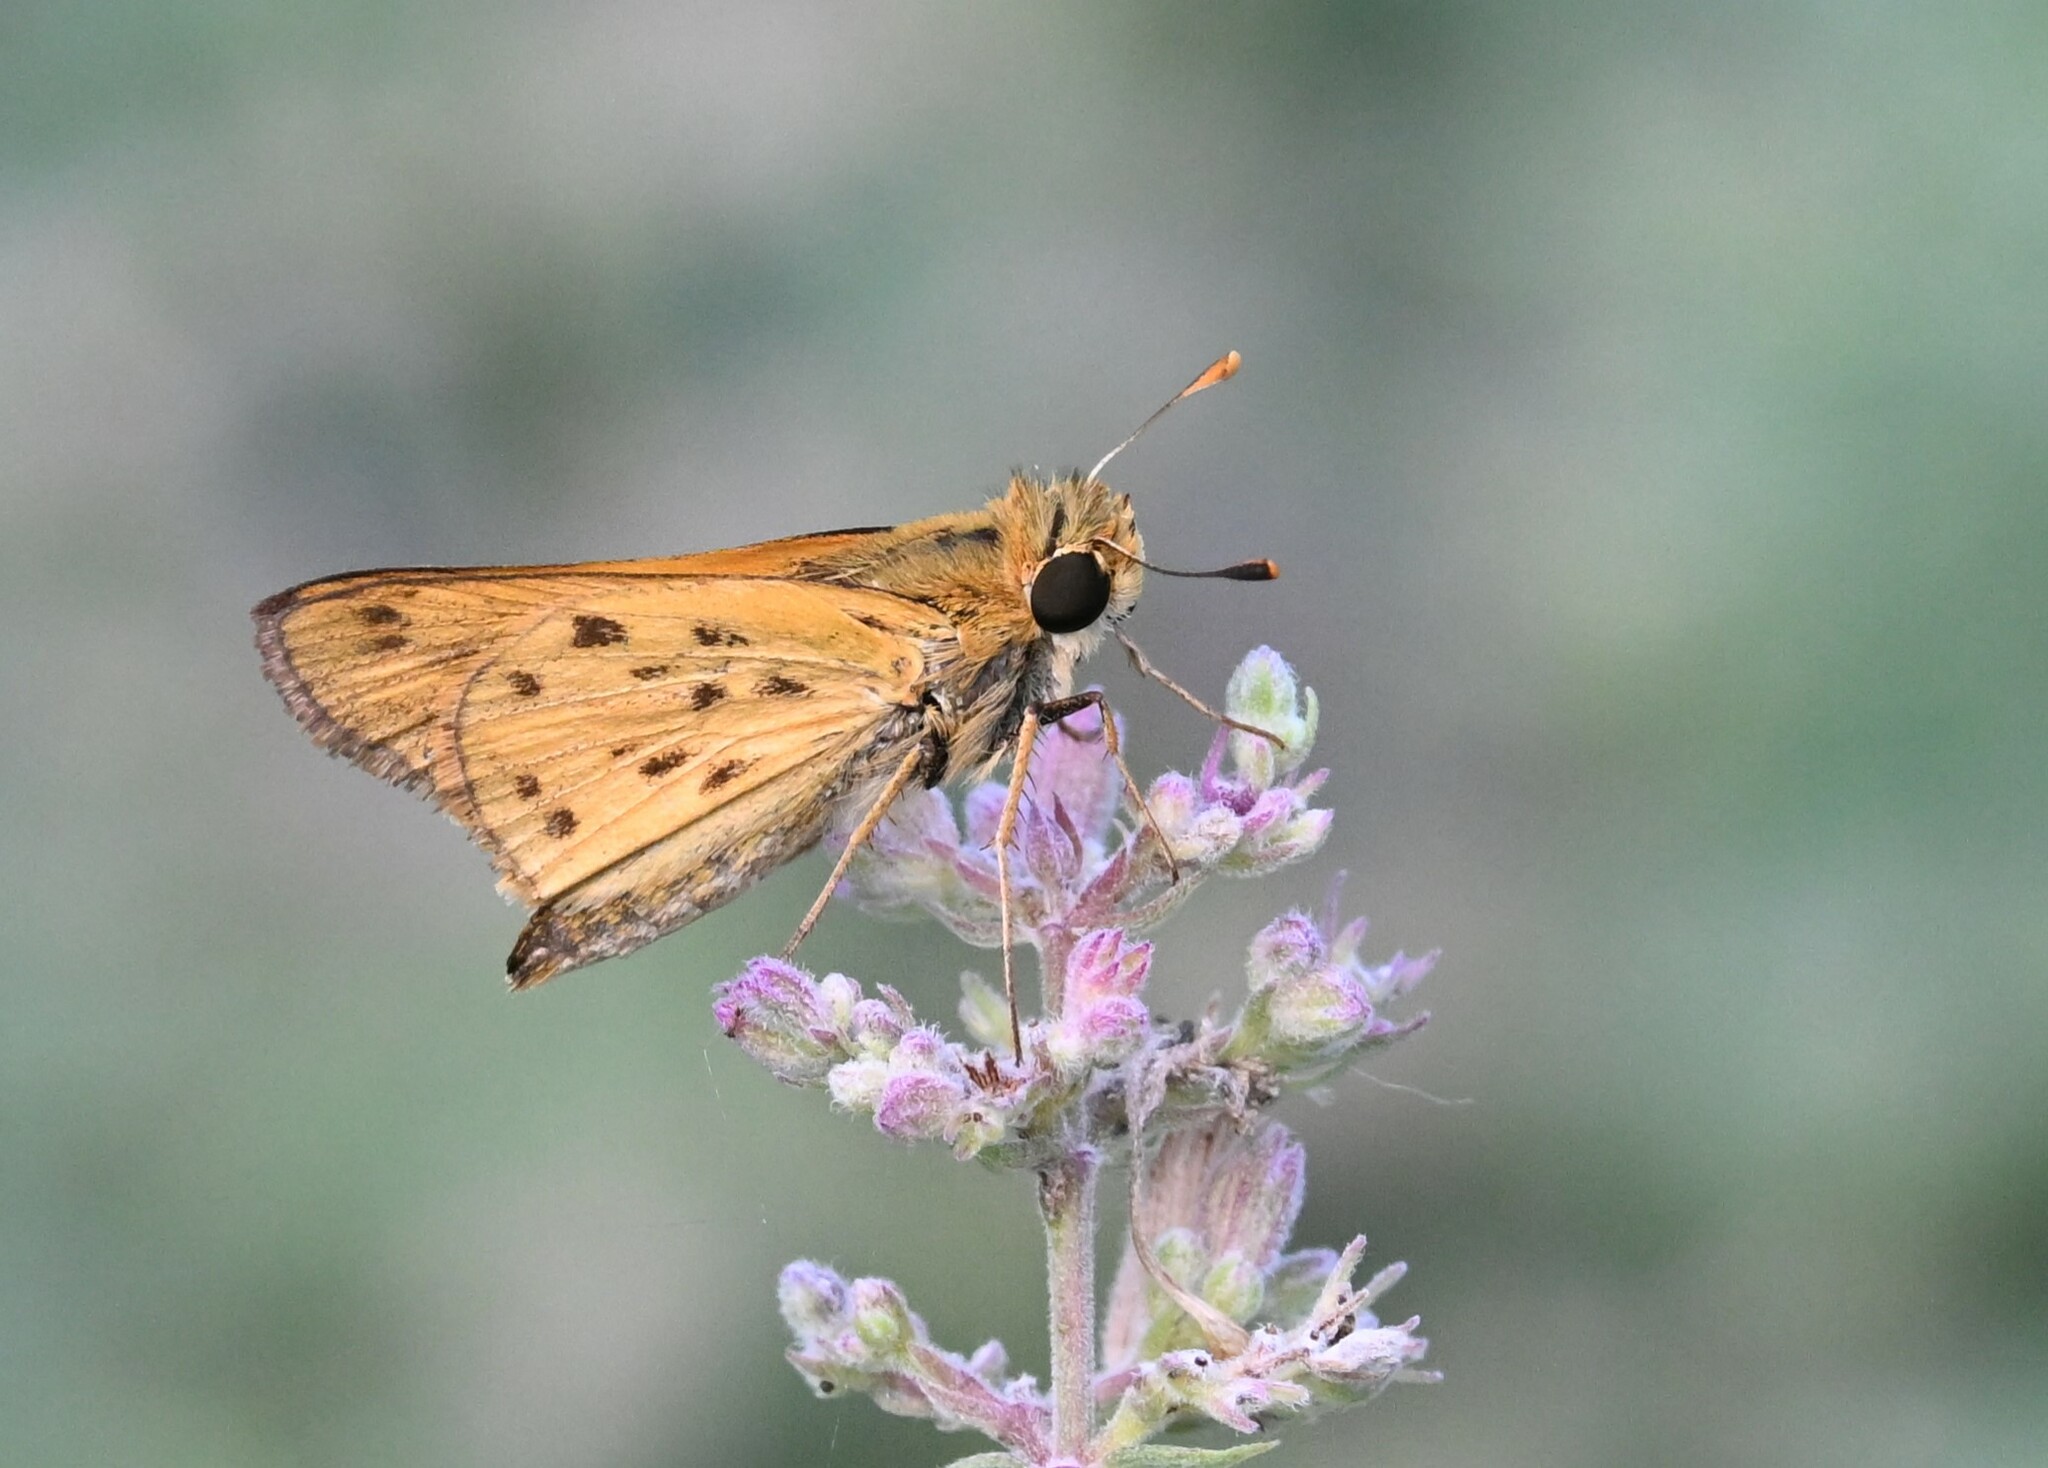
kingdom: Animalia
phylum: Arthropoda
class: Insecta
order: Lepidoptera
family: Hesperiidae
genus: Hylephila
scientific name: Hylephila phyleus
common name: Fiery skipper
